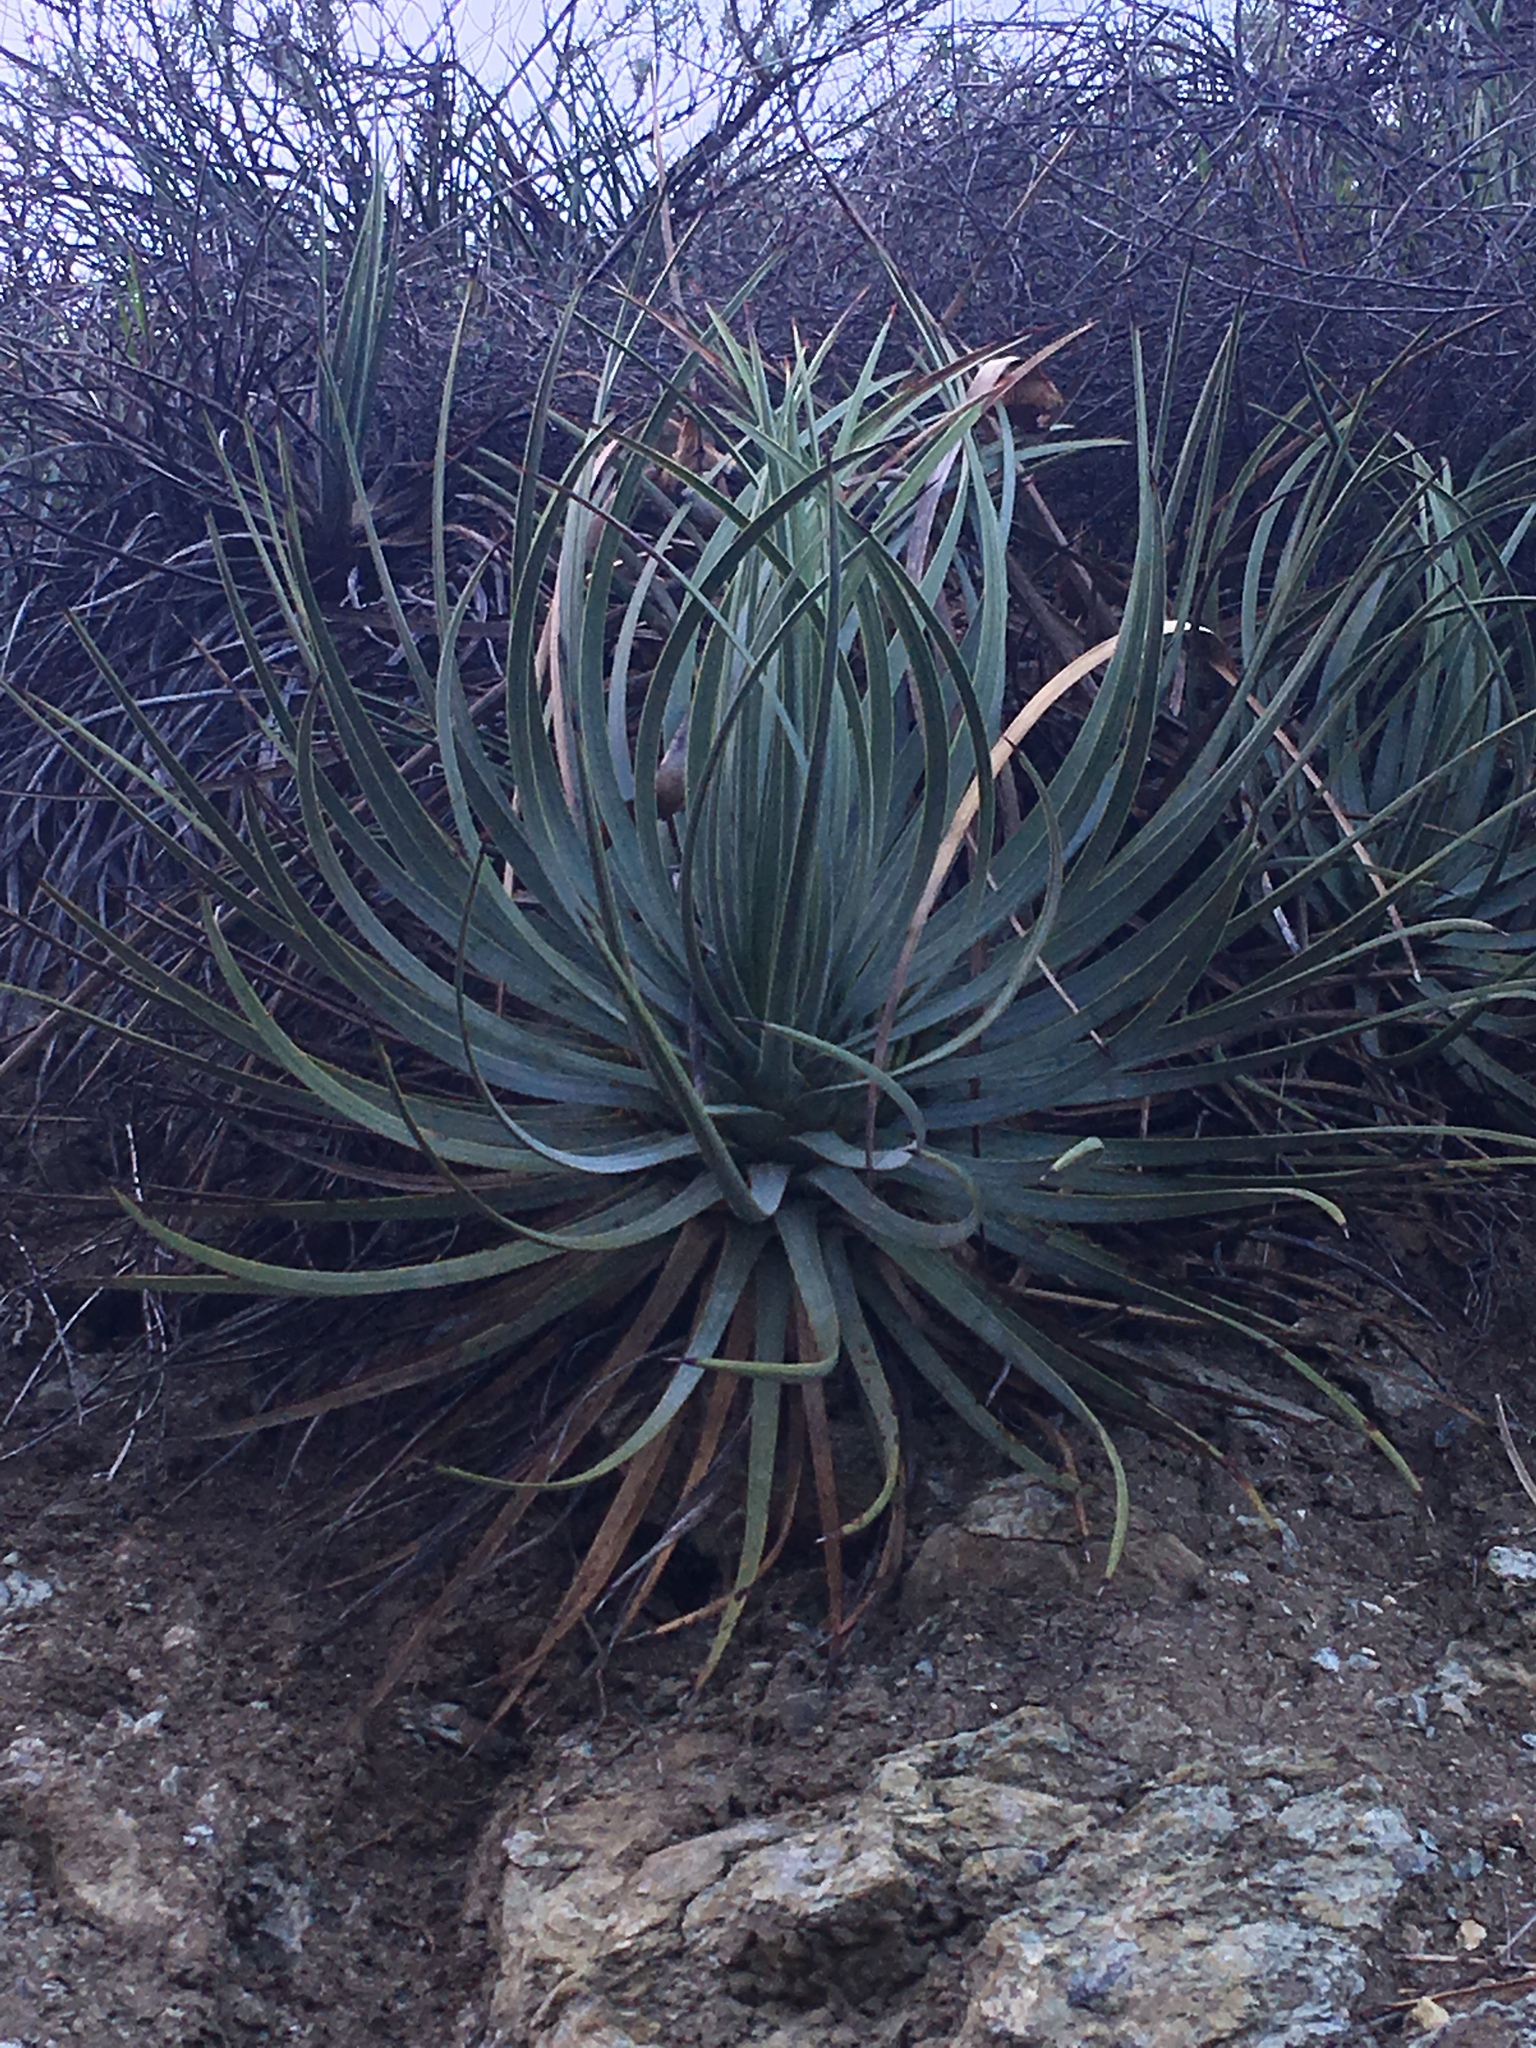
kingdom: Plantae
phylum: Tracheophyta
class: Liliopsida
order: Asparagales
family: Asparagaceae
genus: Hesperoyucca
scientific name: Hesperoyucca whipplei
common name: Our lord's-candle
